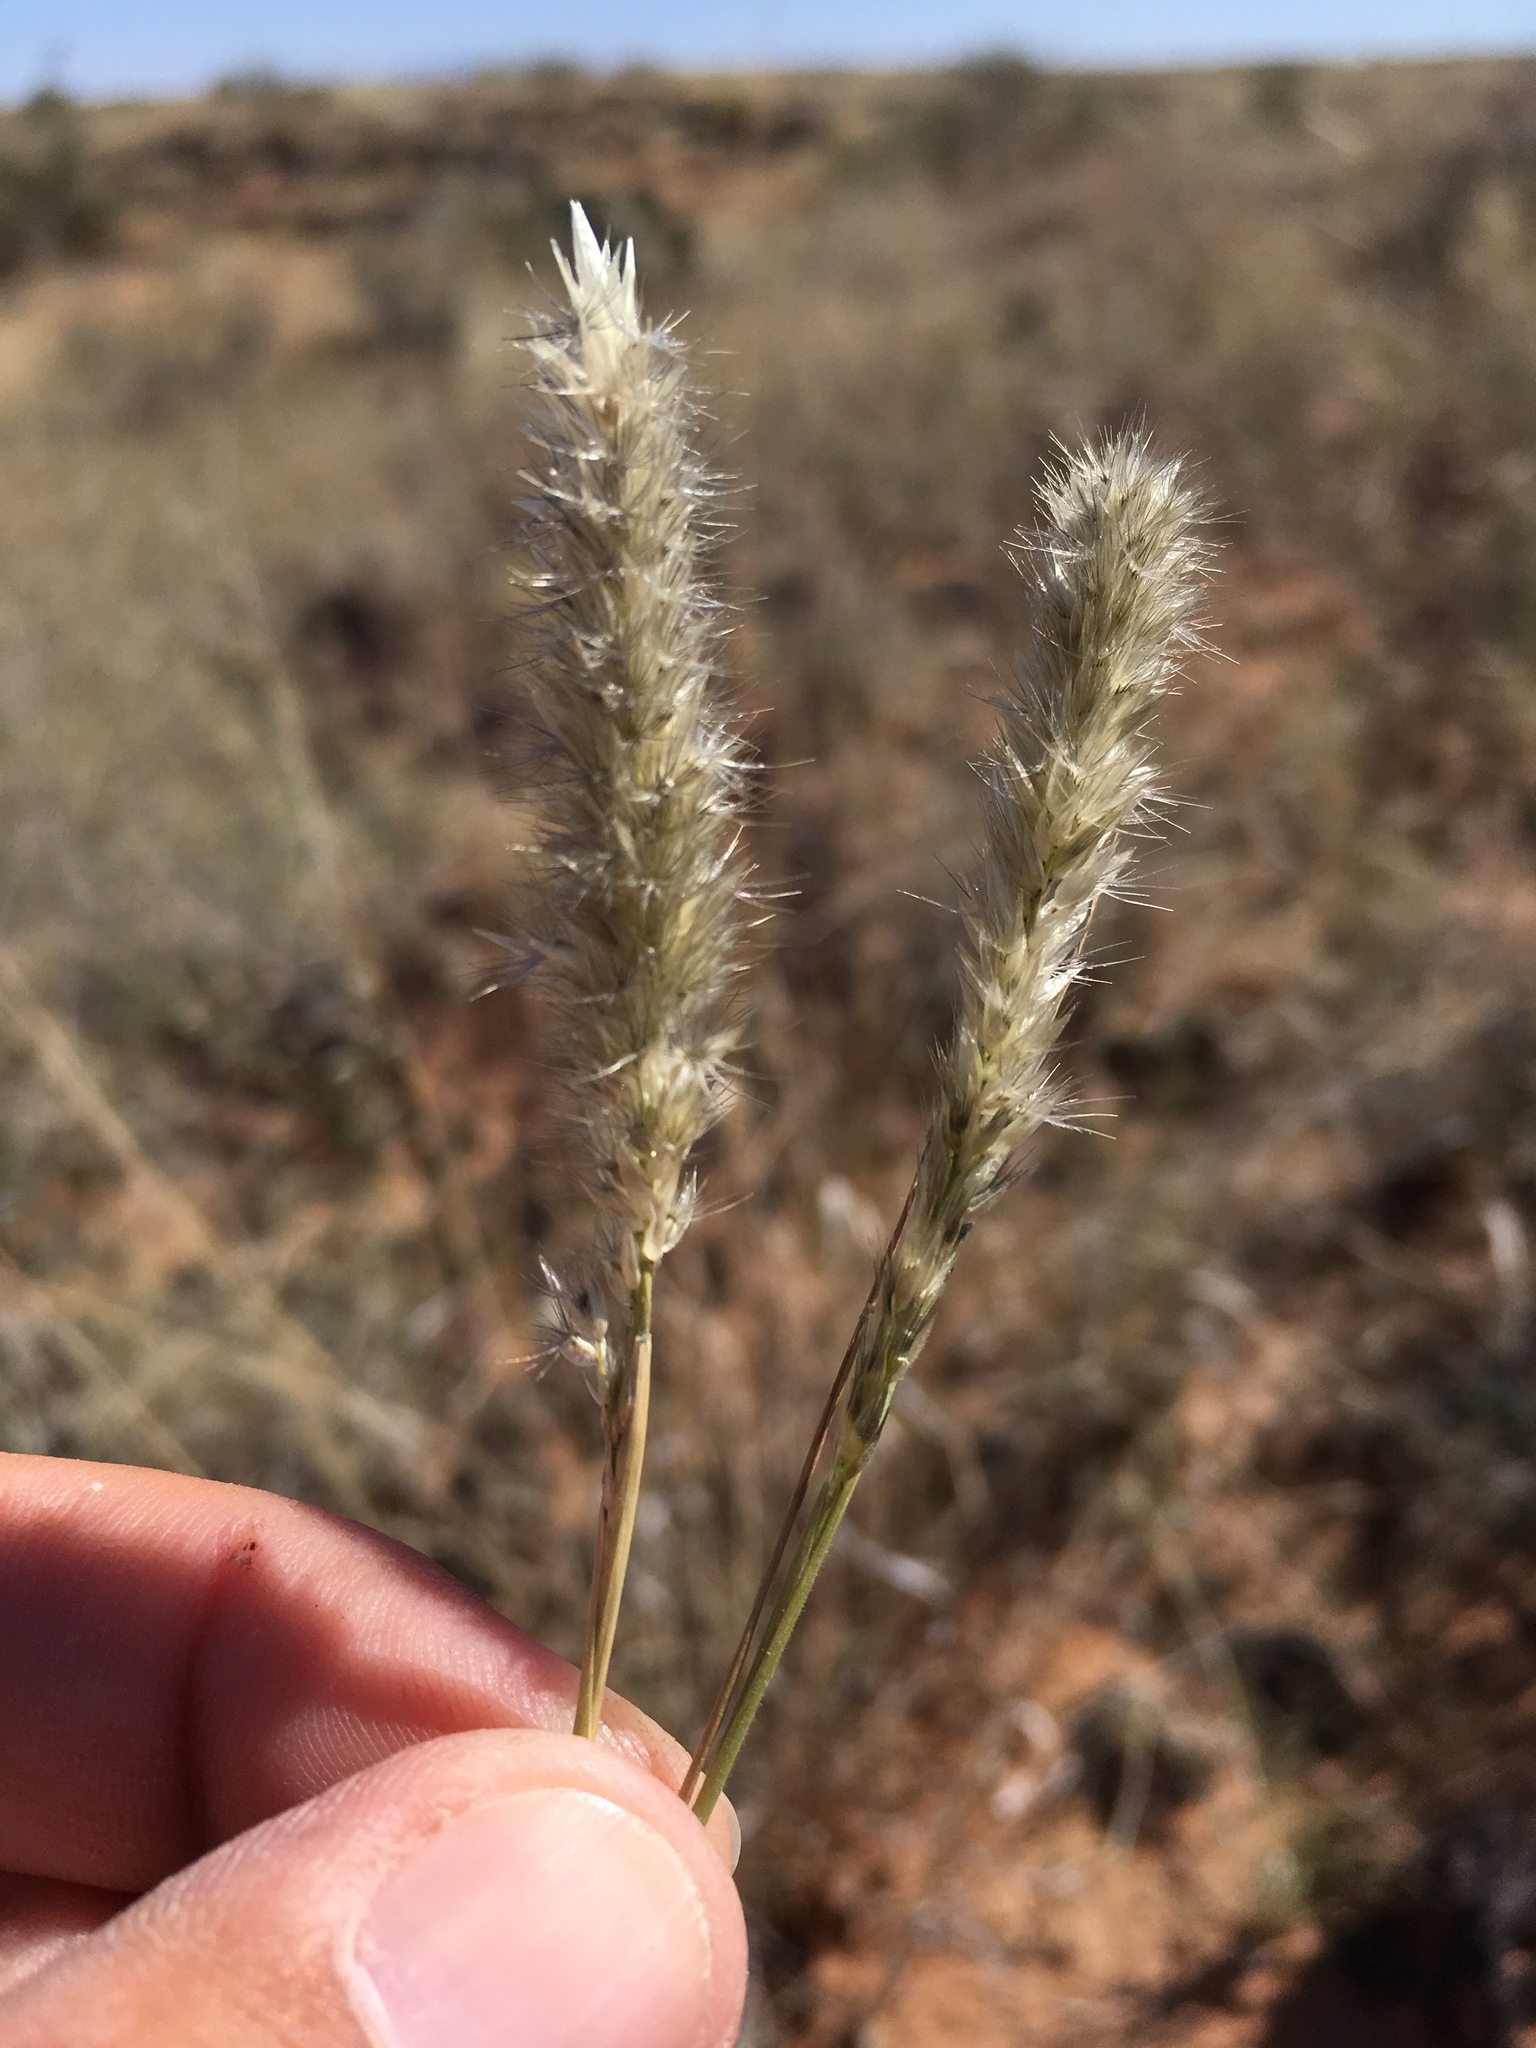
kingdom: Plantae
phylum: Tracheophyta
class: Liliopsida
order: Poales
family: Poaceae
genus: Enneapogon
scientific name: Enneapogon desvauxii
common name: Feather pappus grass
